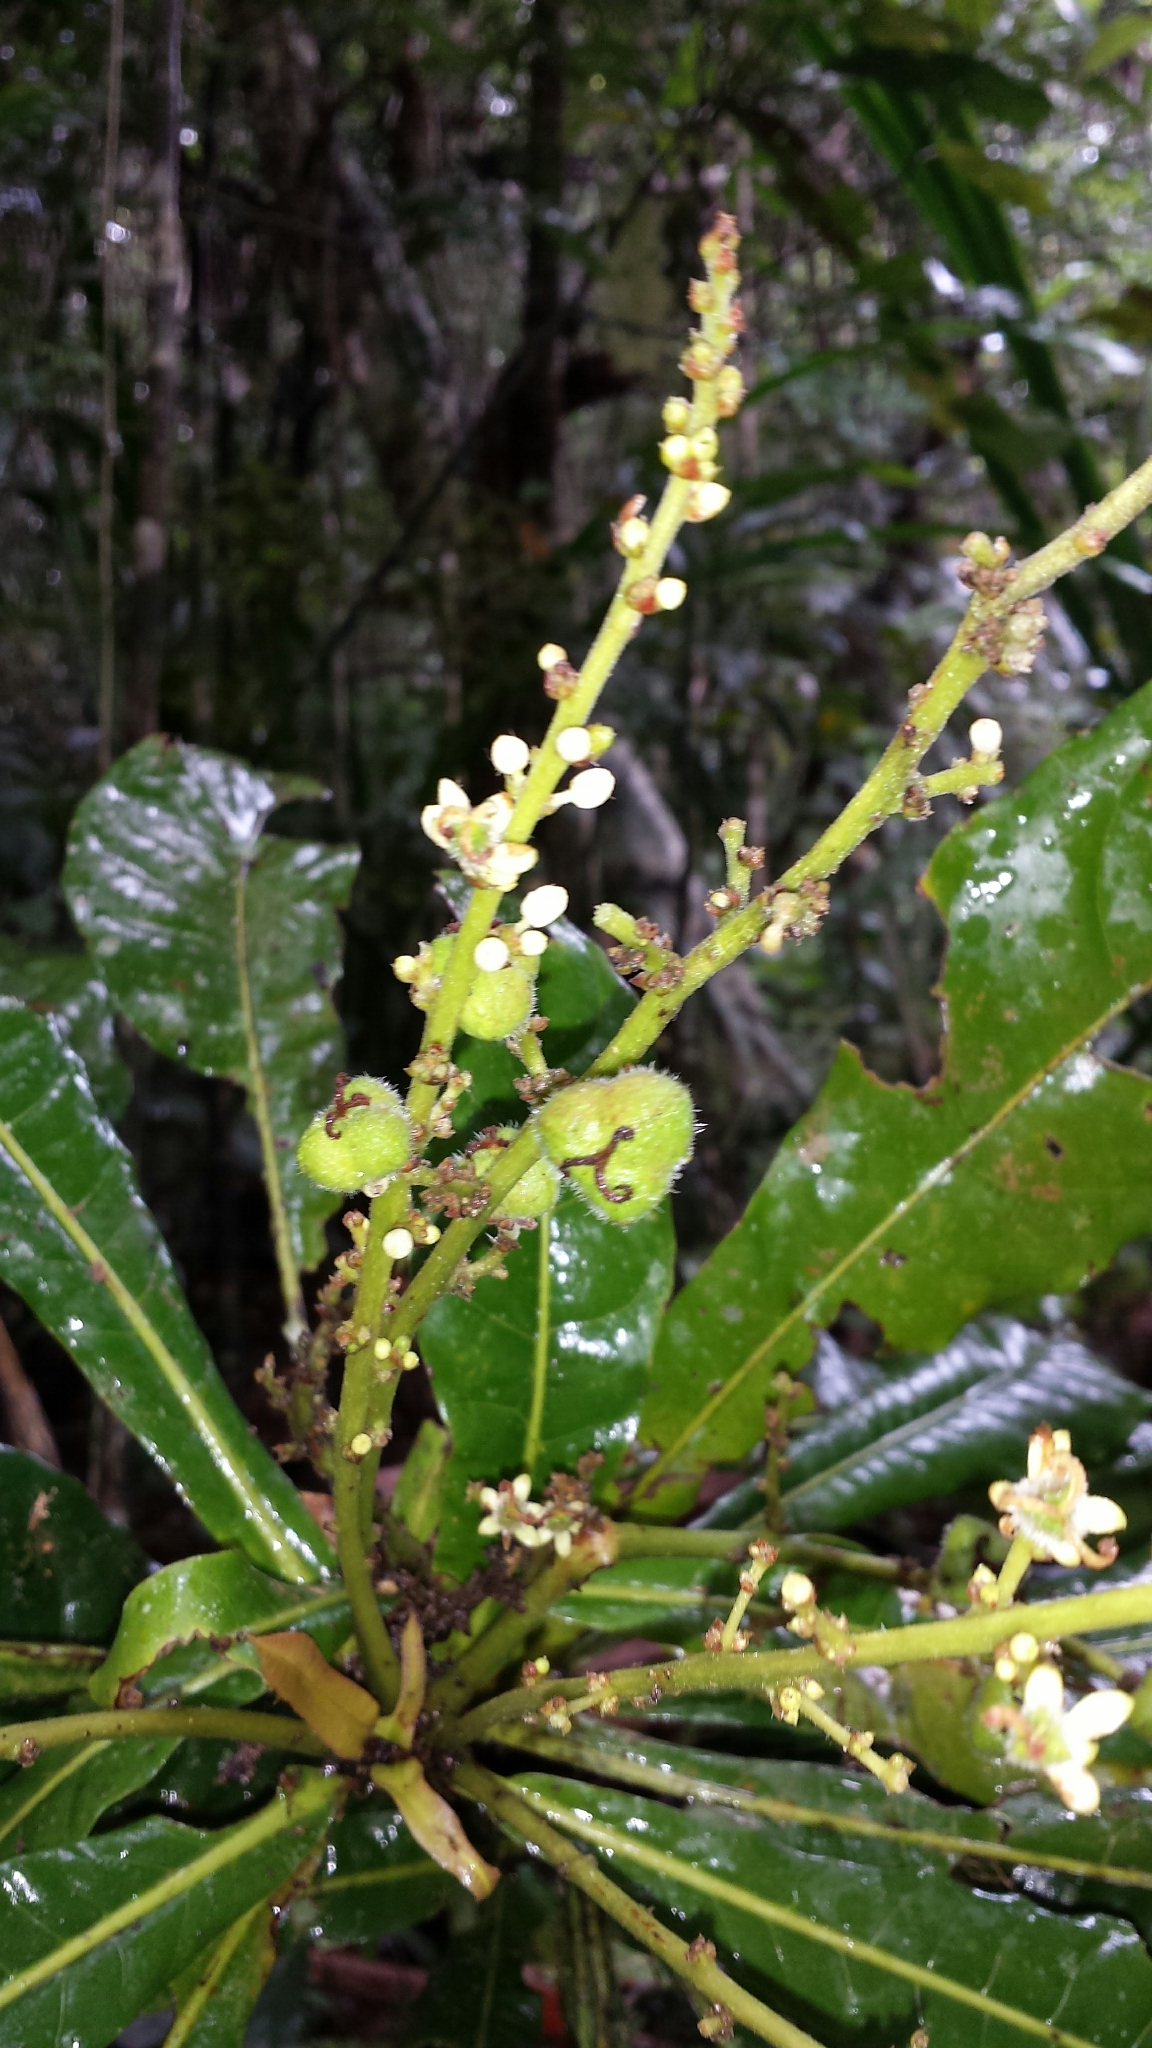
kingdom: Plantae
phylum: Tracheophyta
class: Magnoliopsida
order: Malpighiales
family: Euphorbiaceae
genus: Argomuellera
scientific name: Argomuellera gigantea
